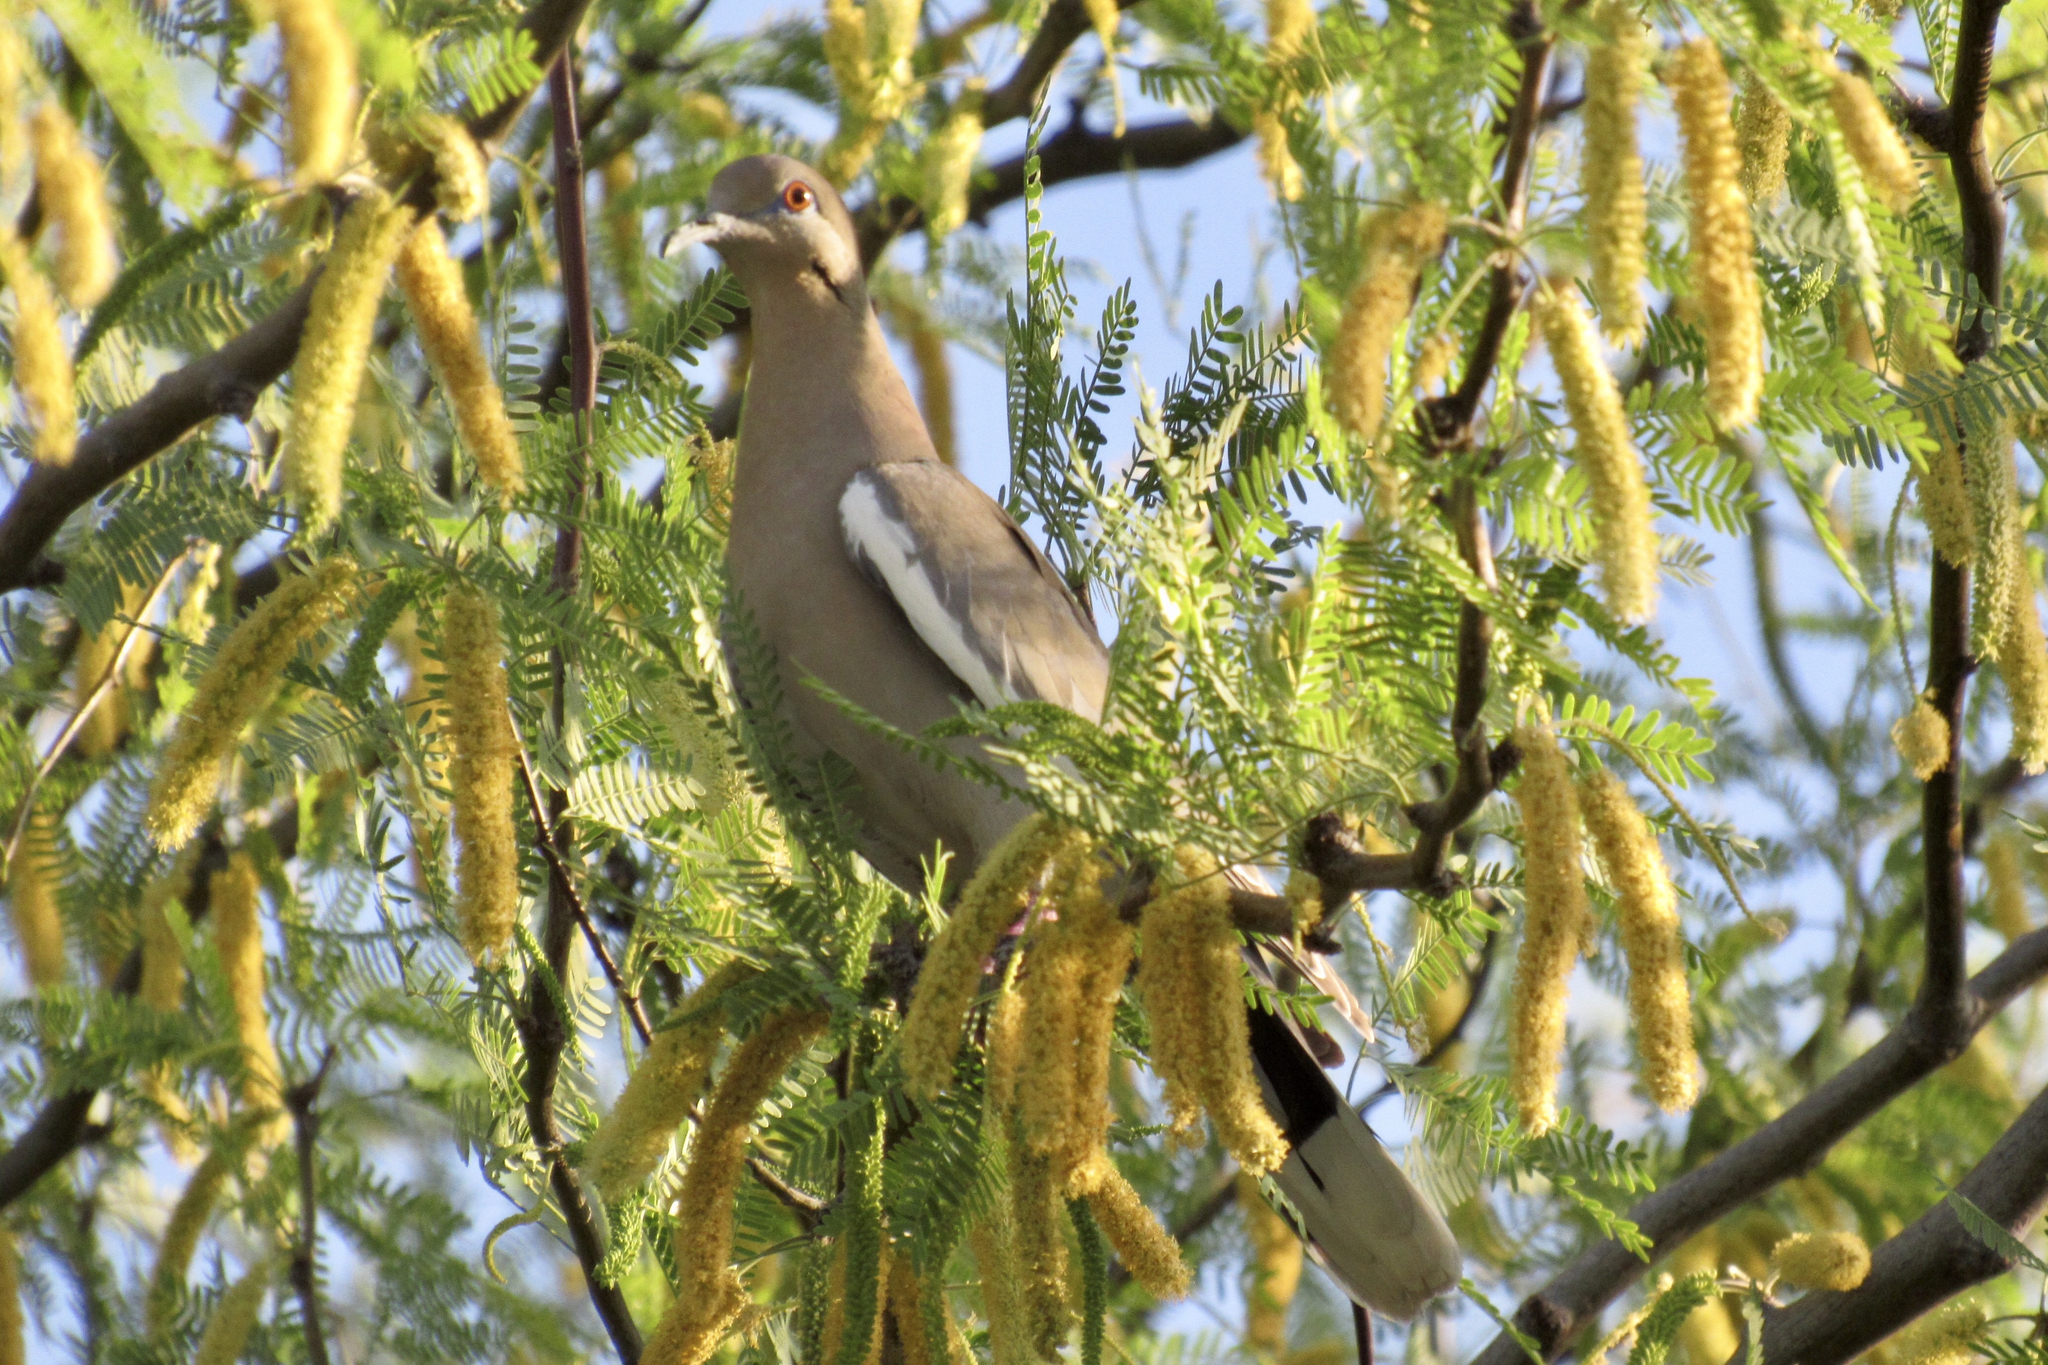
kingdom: Animalia
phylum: Chordata
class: Aves
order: Columbiformes
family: Columbidae
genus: Zenaida
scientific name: Zenaida asiatica
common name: White-winged dove
